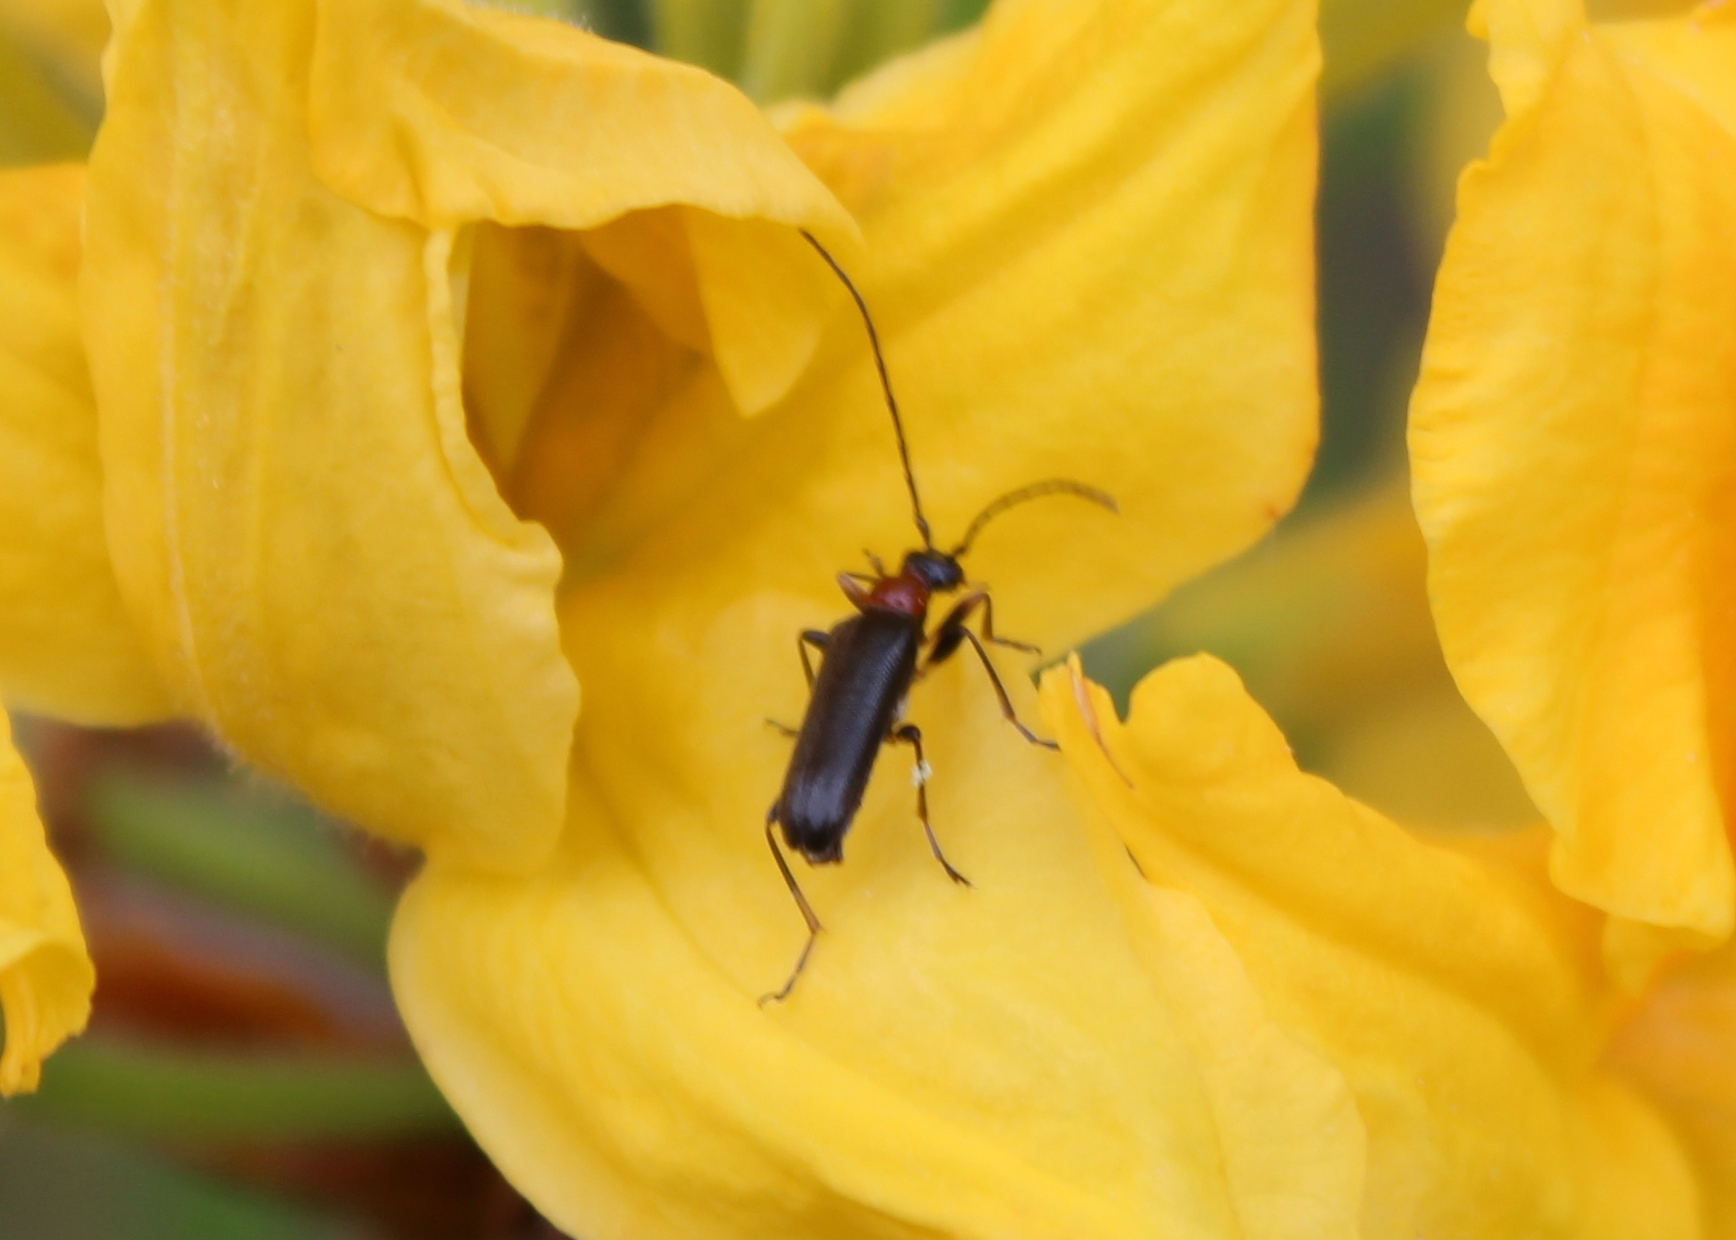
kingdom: Animalia
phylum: Arthropoda
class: Insecta
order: Coleoptera
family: Cerambycidae
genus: Pidonia
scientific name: Pidonia ruficollis
